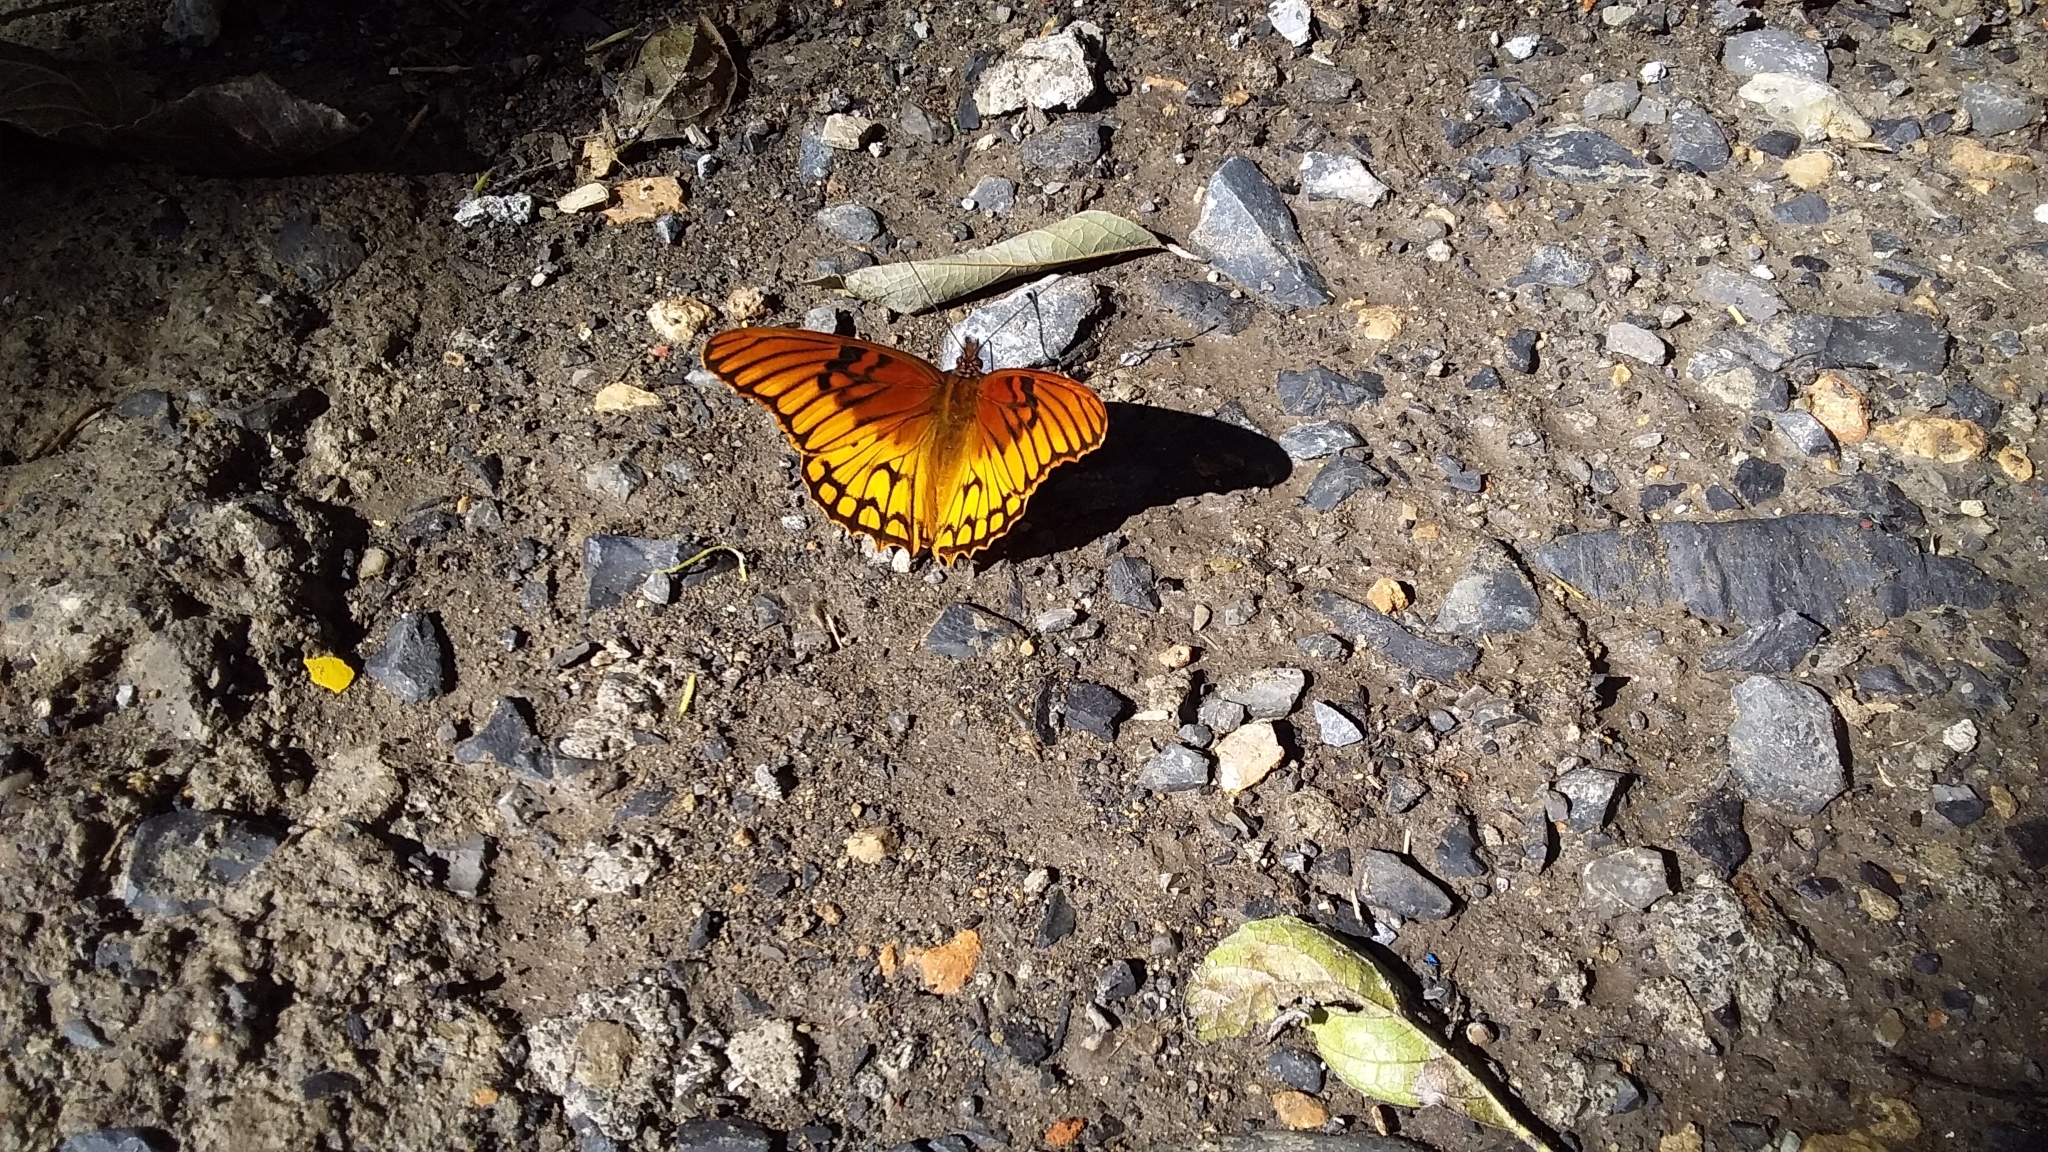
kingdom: Animalia
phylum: Arthropoda
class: Insecta
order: Lepidoptera
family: Nymphalidae
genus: Dione
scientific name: Dione moneta
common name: Mexican silverspot
